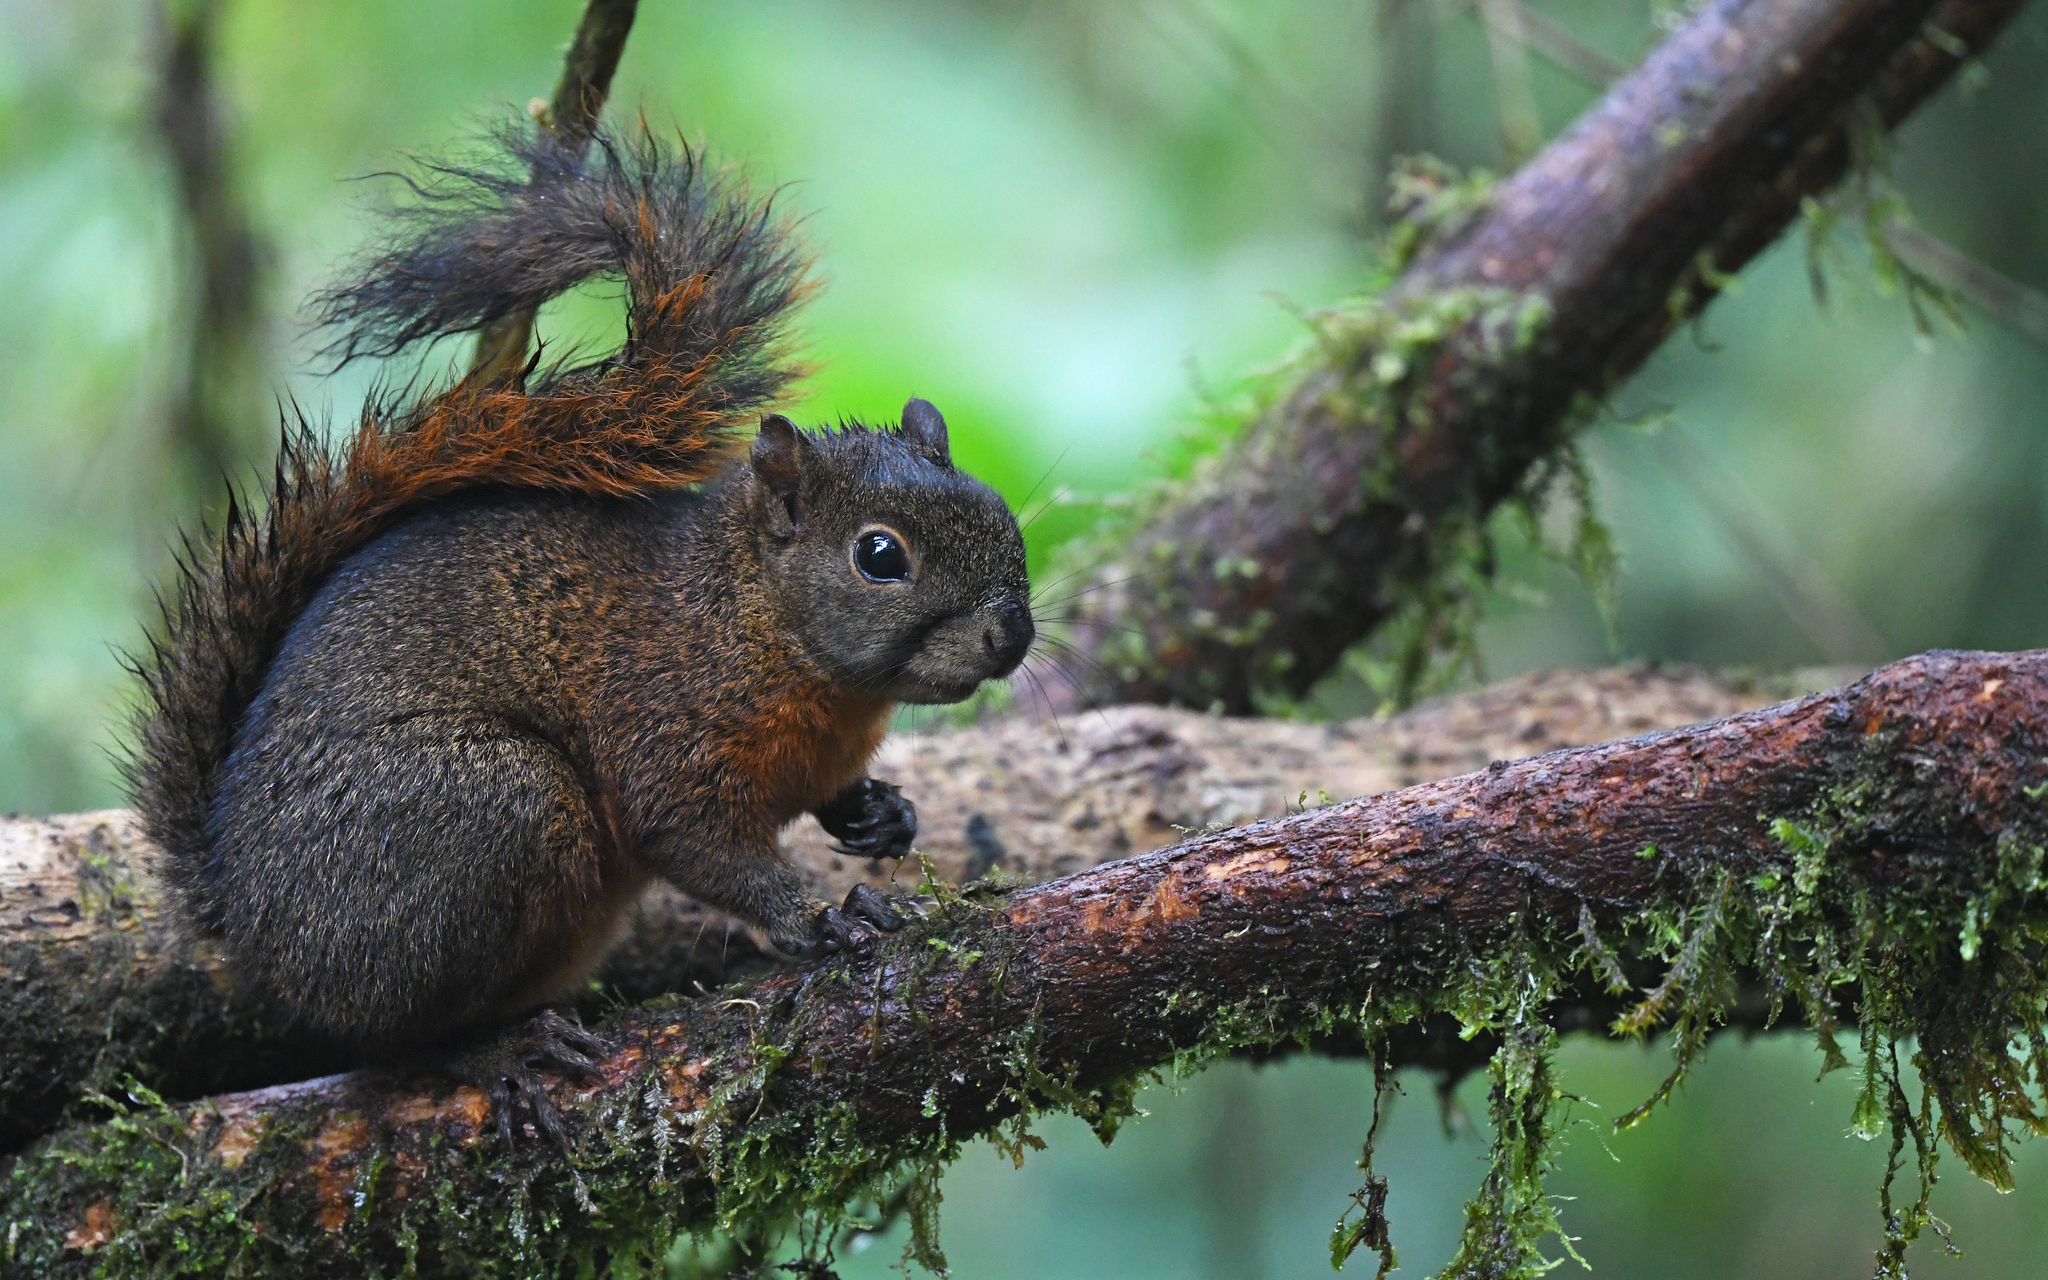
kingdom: Animalia
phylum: Chordata
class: Mammalia
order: Rodentia
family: Sciuridae
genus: Sciurus
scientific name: Sciurus granatensis
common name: Red-tailed squirrel
